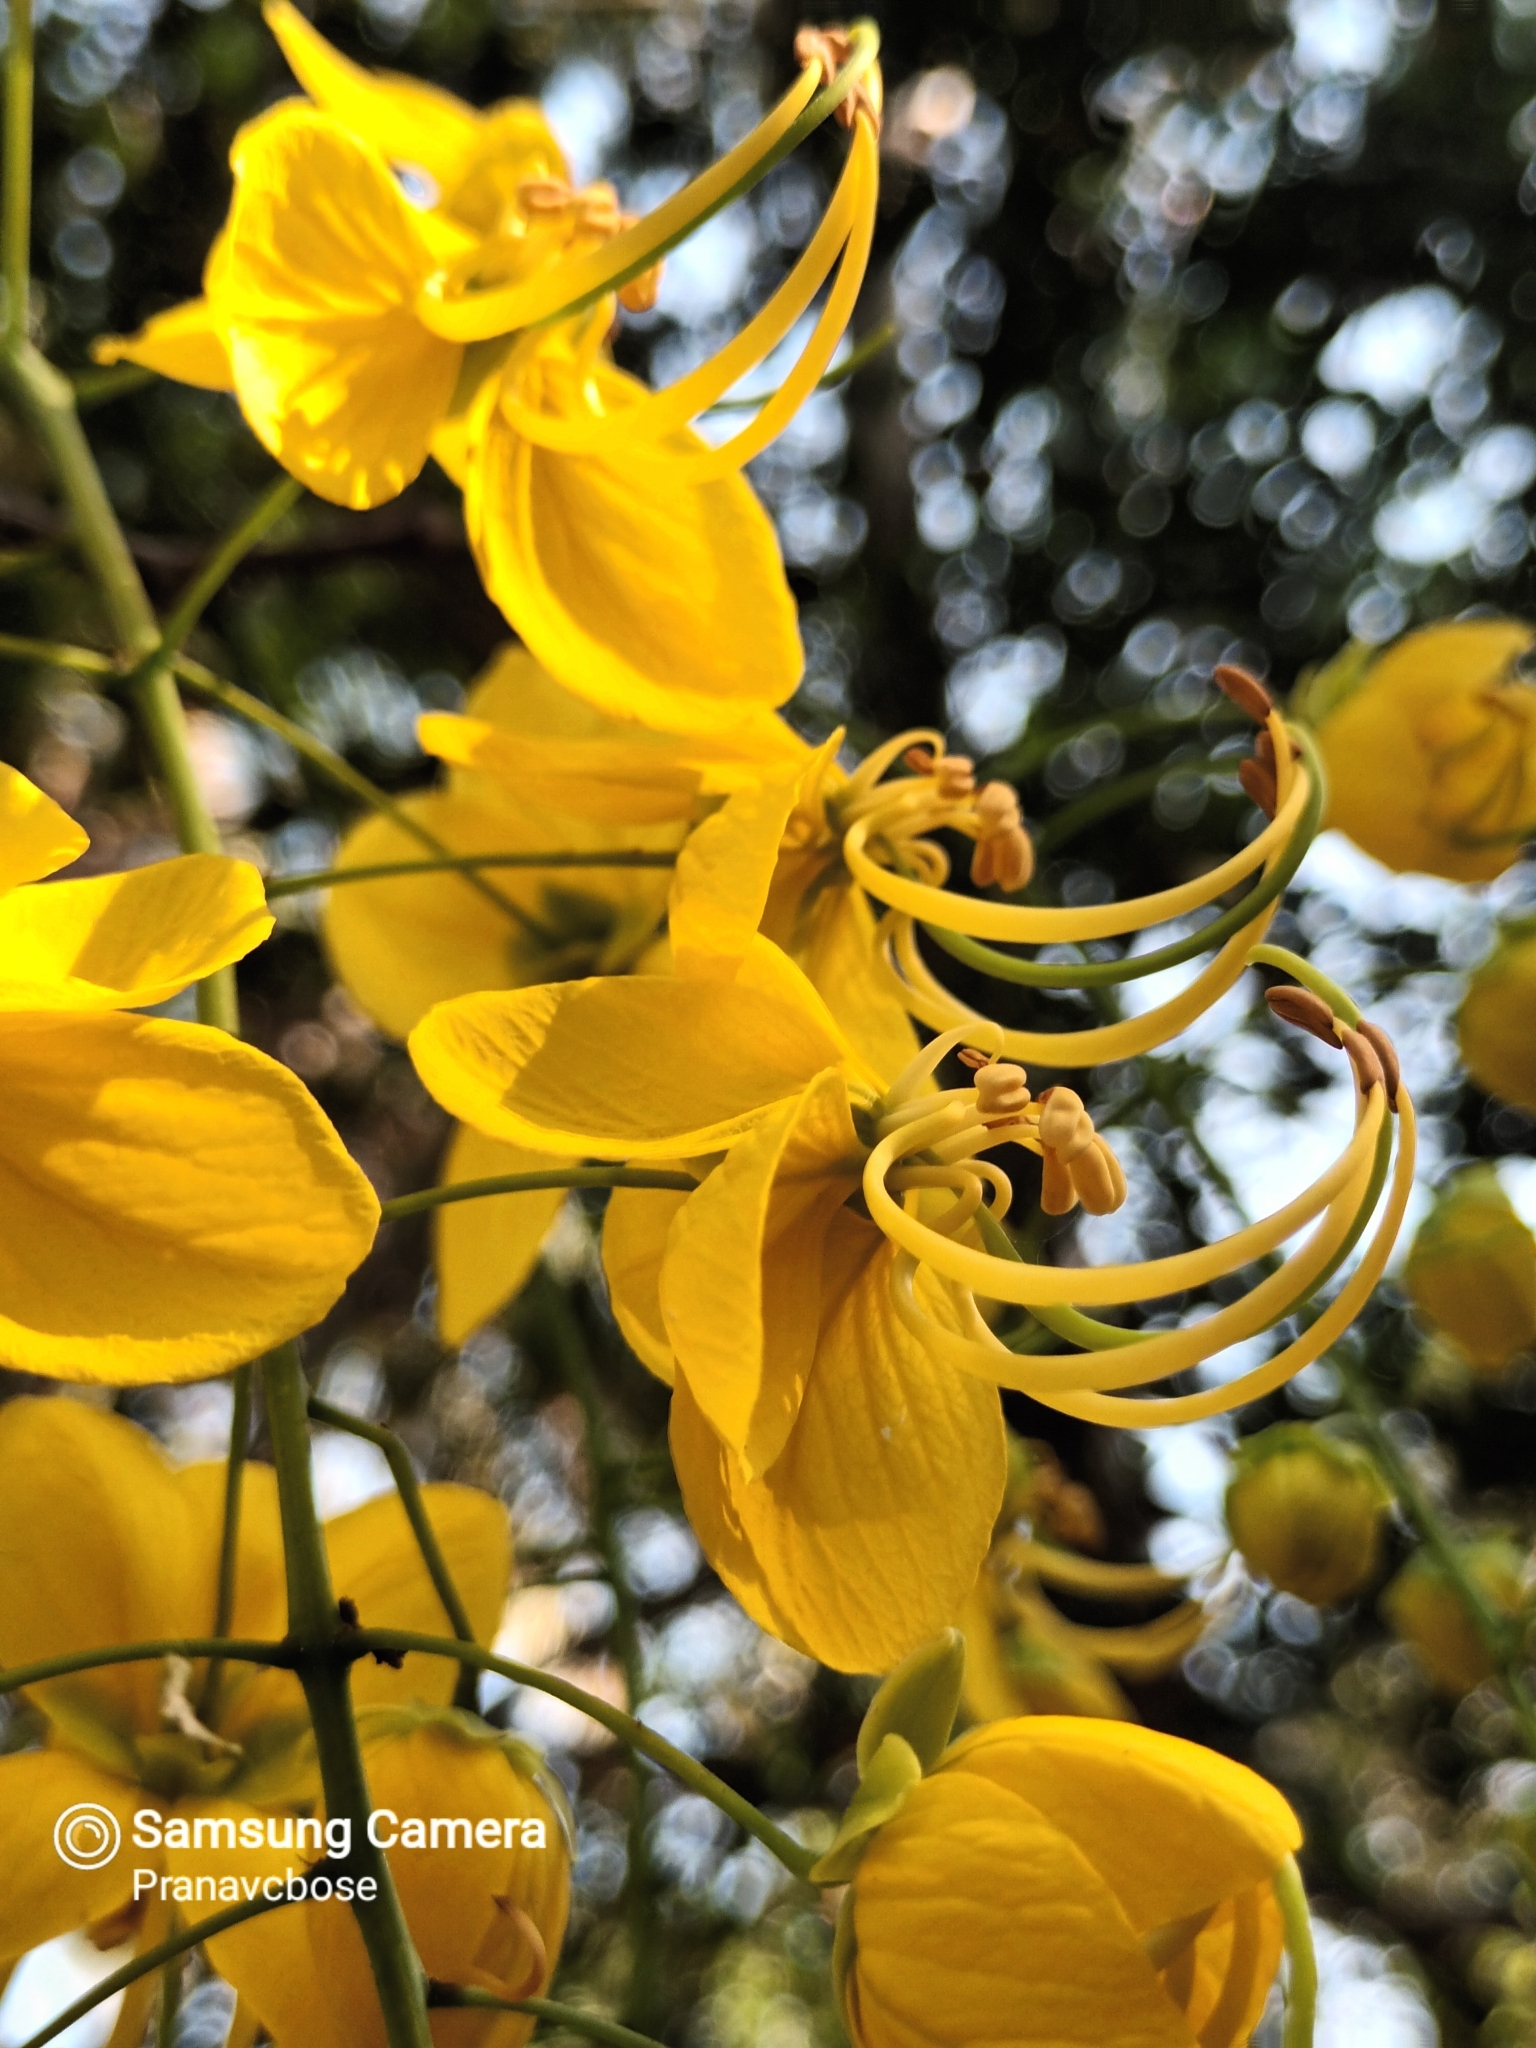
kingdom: Plantae
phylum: Tracheophyta
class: Magnoliopsida
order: Fabales
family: Fabaceae
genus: Cassia
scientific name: Cassia fistula
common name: Golden shower
